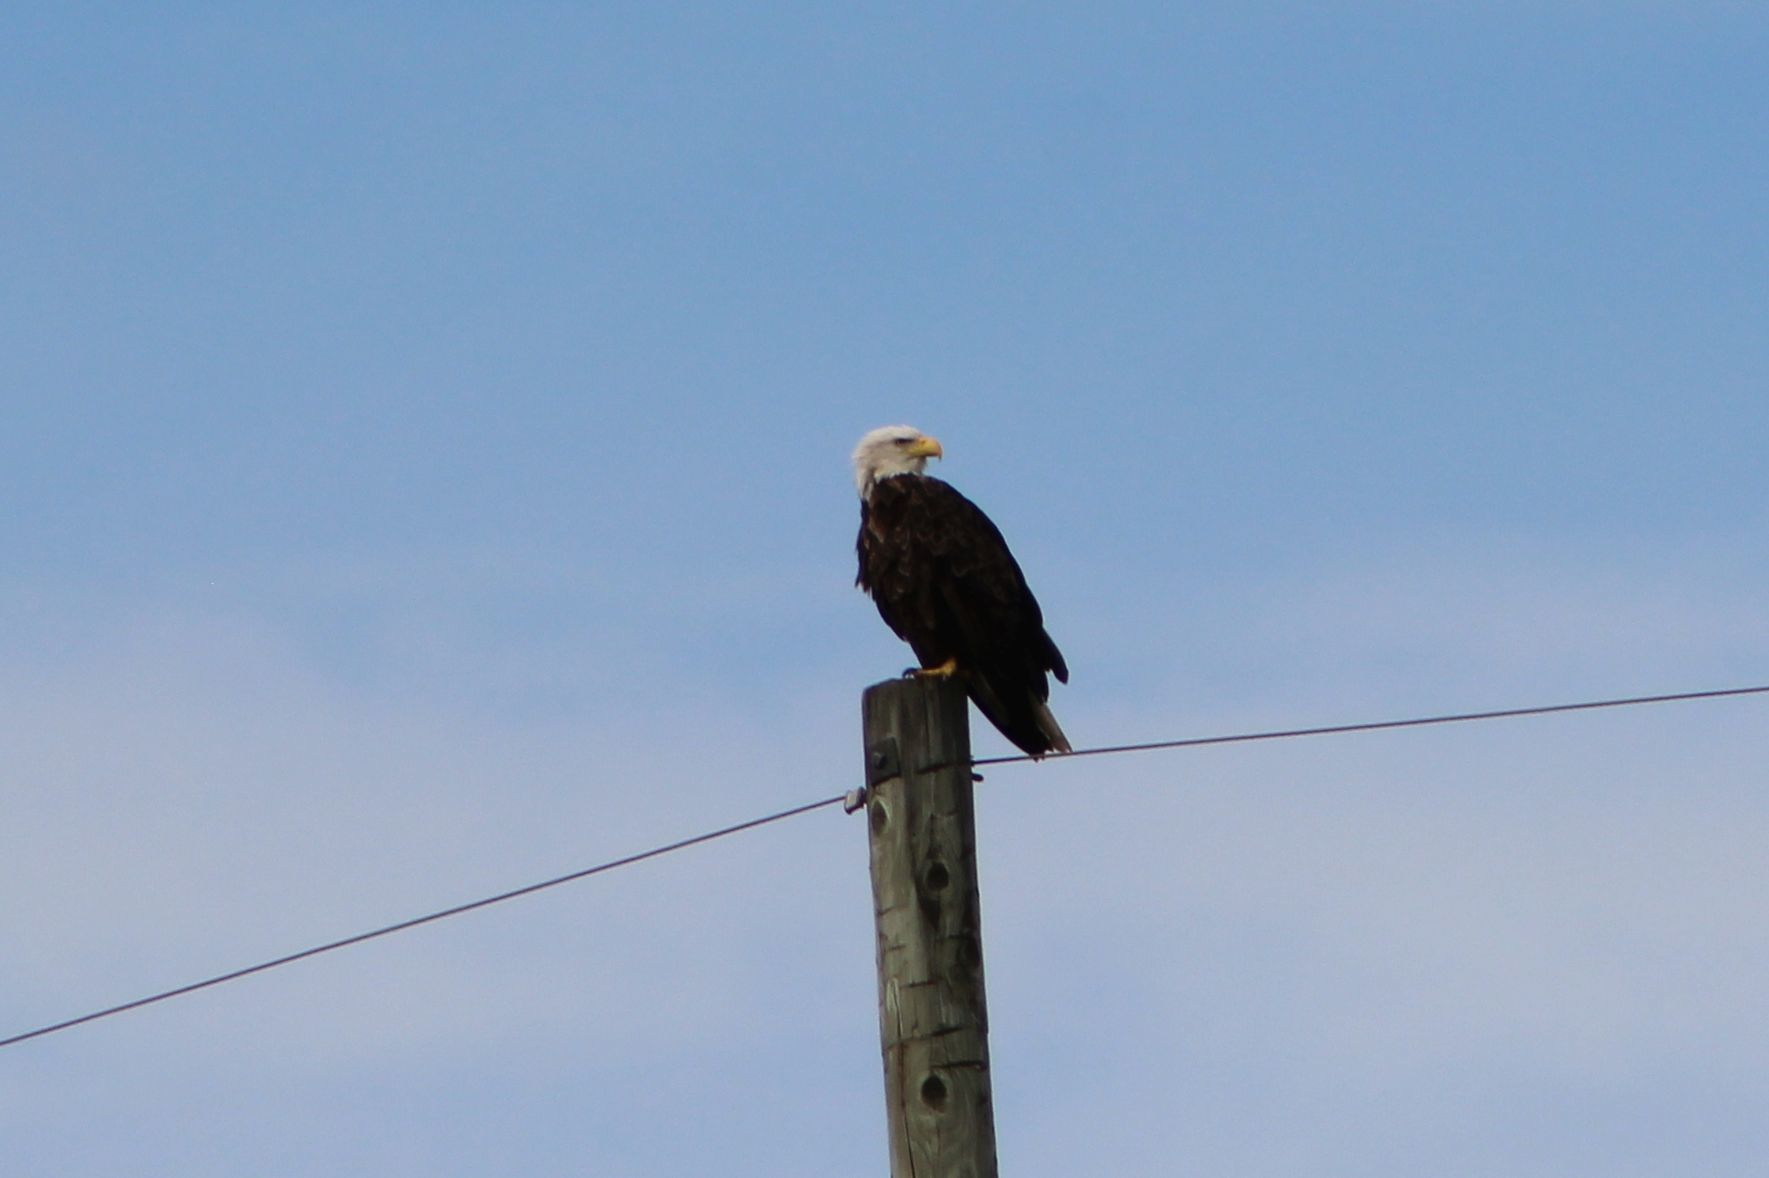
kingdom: Animalia
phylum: Chordata
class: Aves
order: Accipitriformes
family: Accipitridae
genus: Haliaeetus
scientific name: Haliaeetus leucocephalus
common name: Bald eagle
